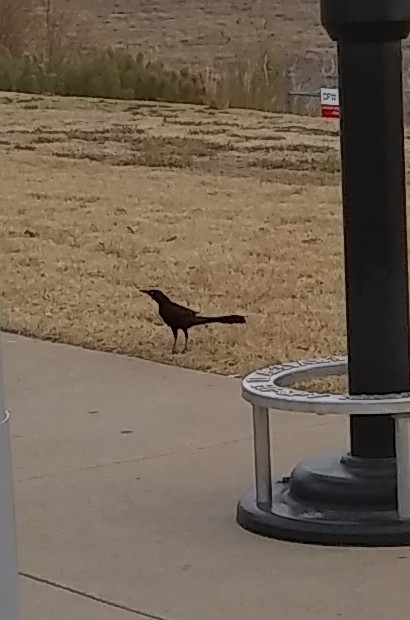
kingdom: Animalia
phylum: Chordata
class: Aves
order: Passeriformes
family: Icteridae
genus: Quiscalus
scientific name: Quiscalus mexicanus
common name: Great-tailed grackle
